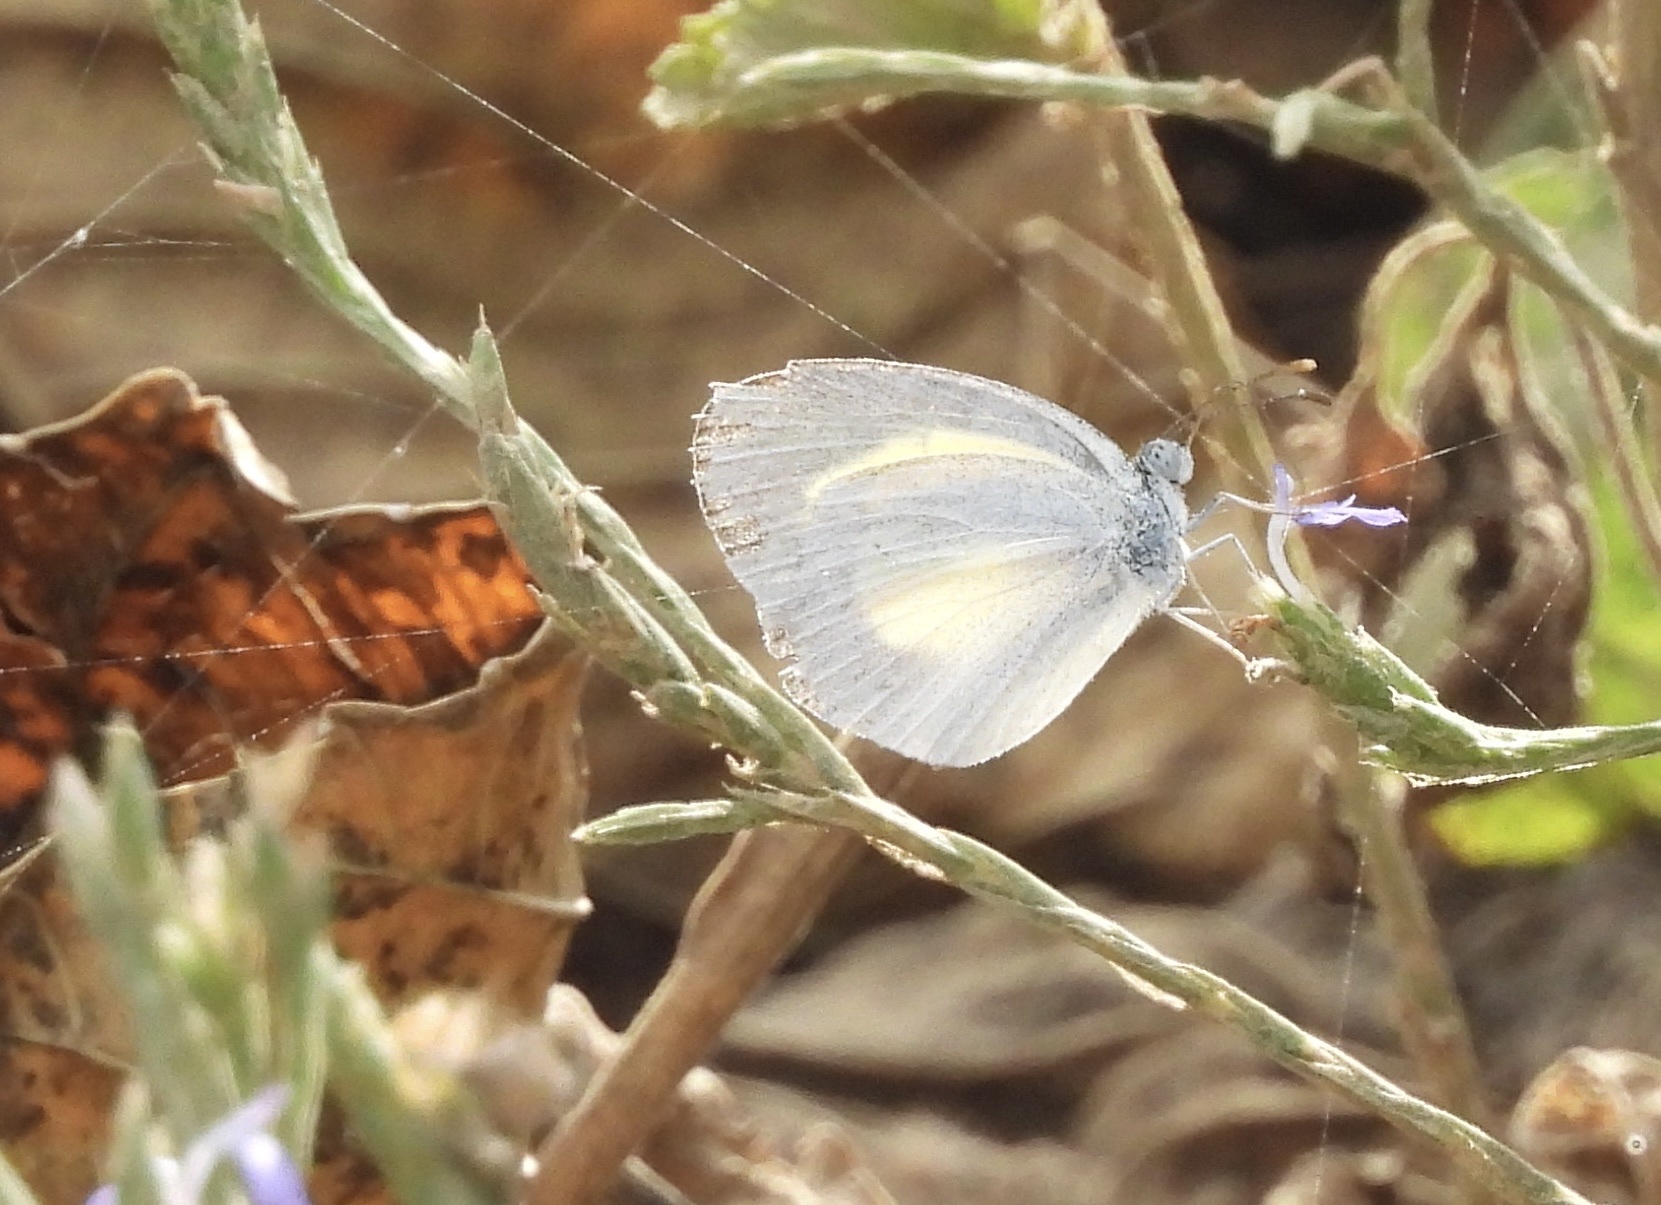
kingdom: Animalia
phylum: Arthropoda
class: Insecta
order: Lepidoptera
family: Pieridae
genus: Eurema
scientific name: Eurema daira
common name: Barred sulphur
